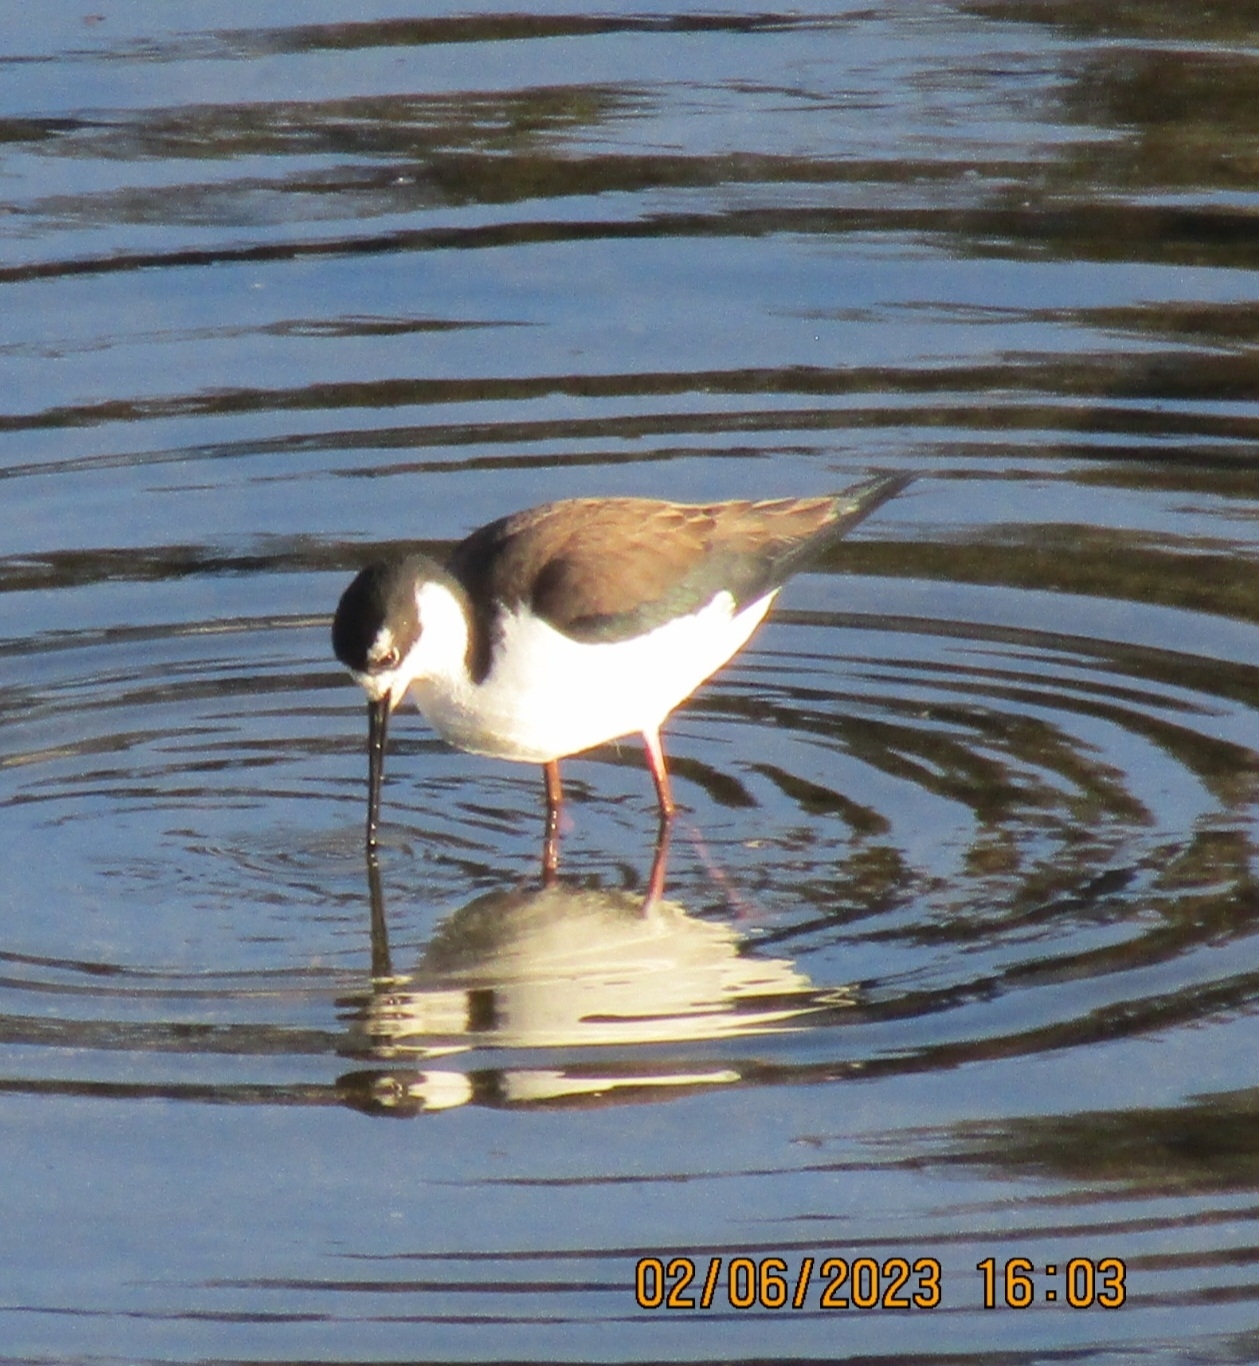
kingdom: Animalia
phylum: Chordata
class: Aves
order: Charadriiformes
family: Recurvirostridae
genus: Himantopus
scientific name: Himantopus mexicanus
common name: Black-necked stilt
